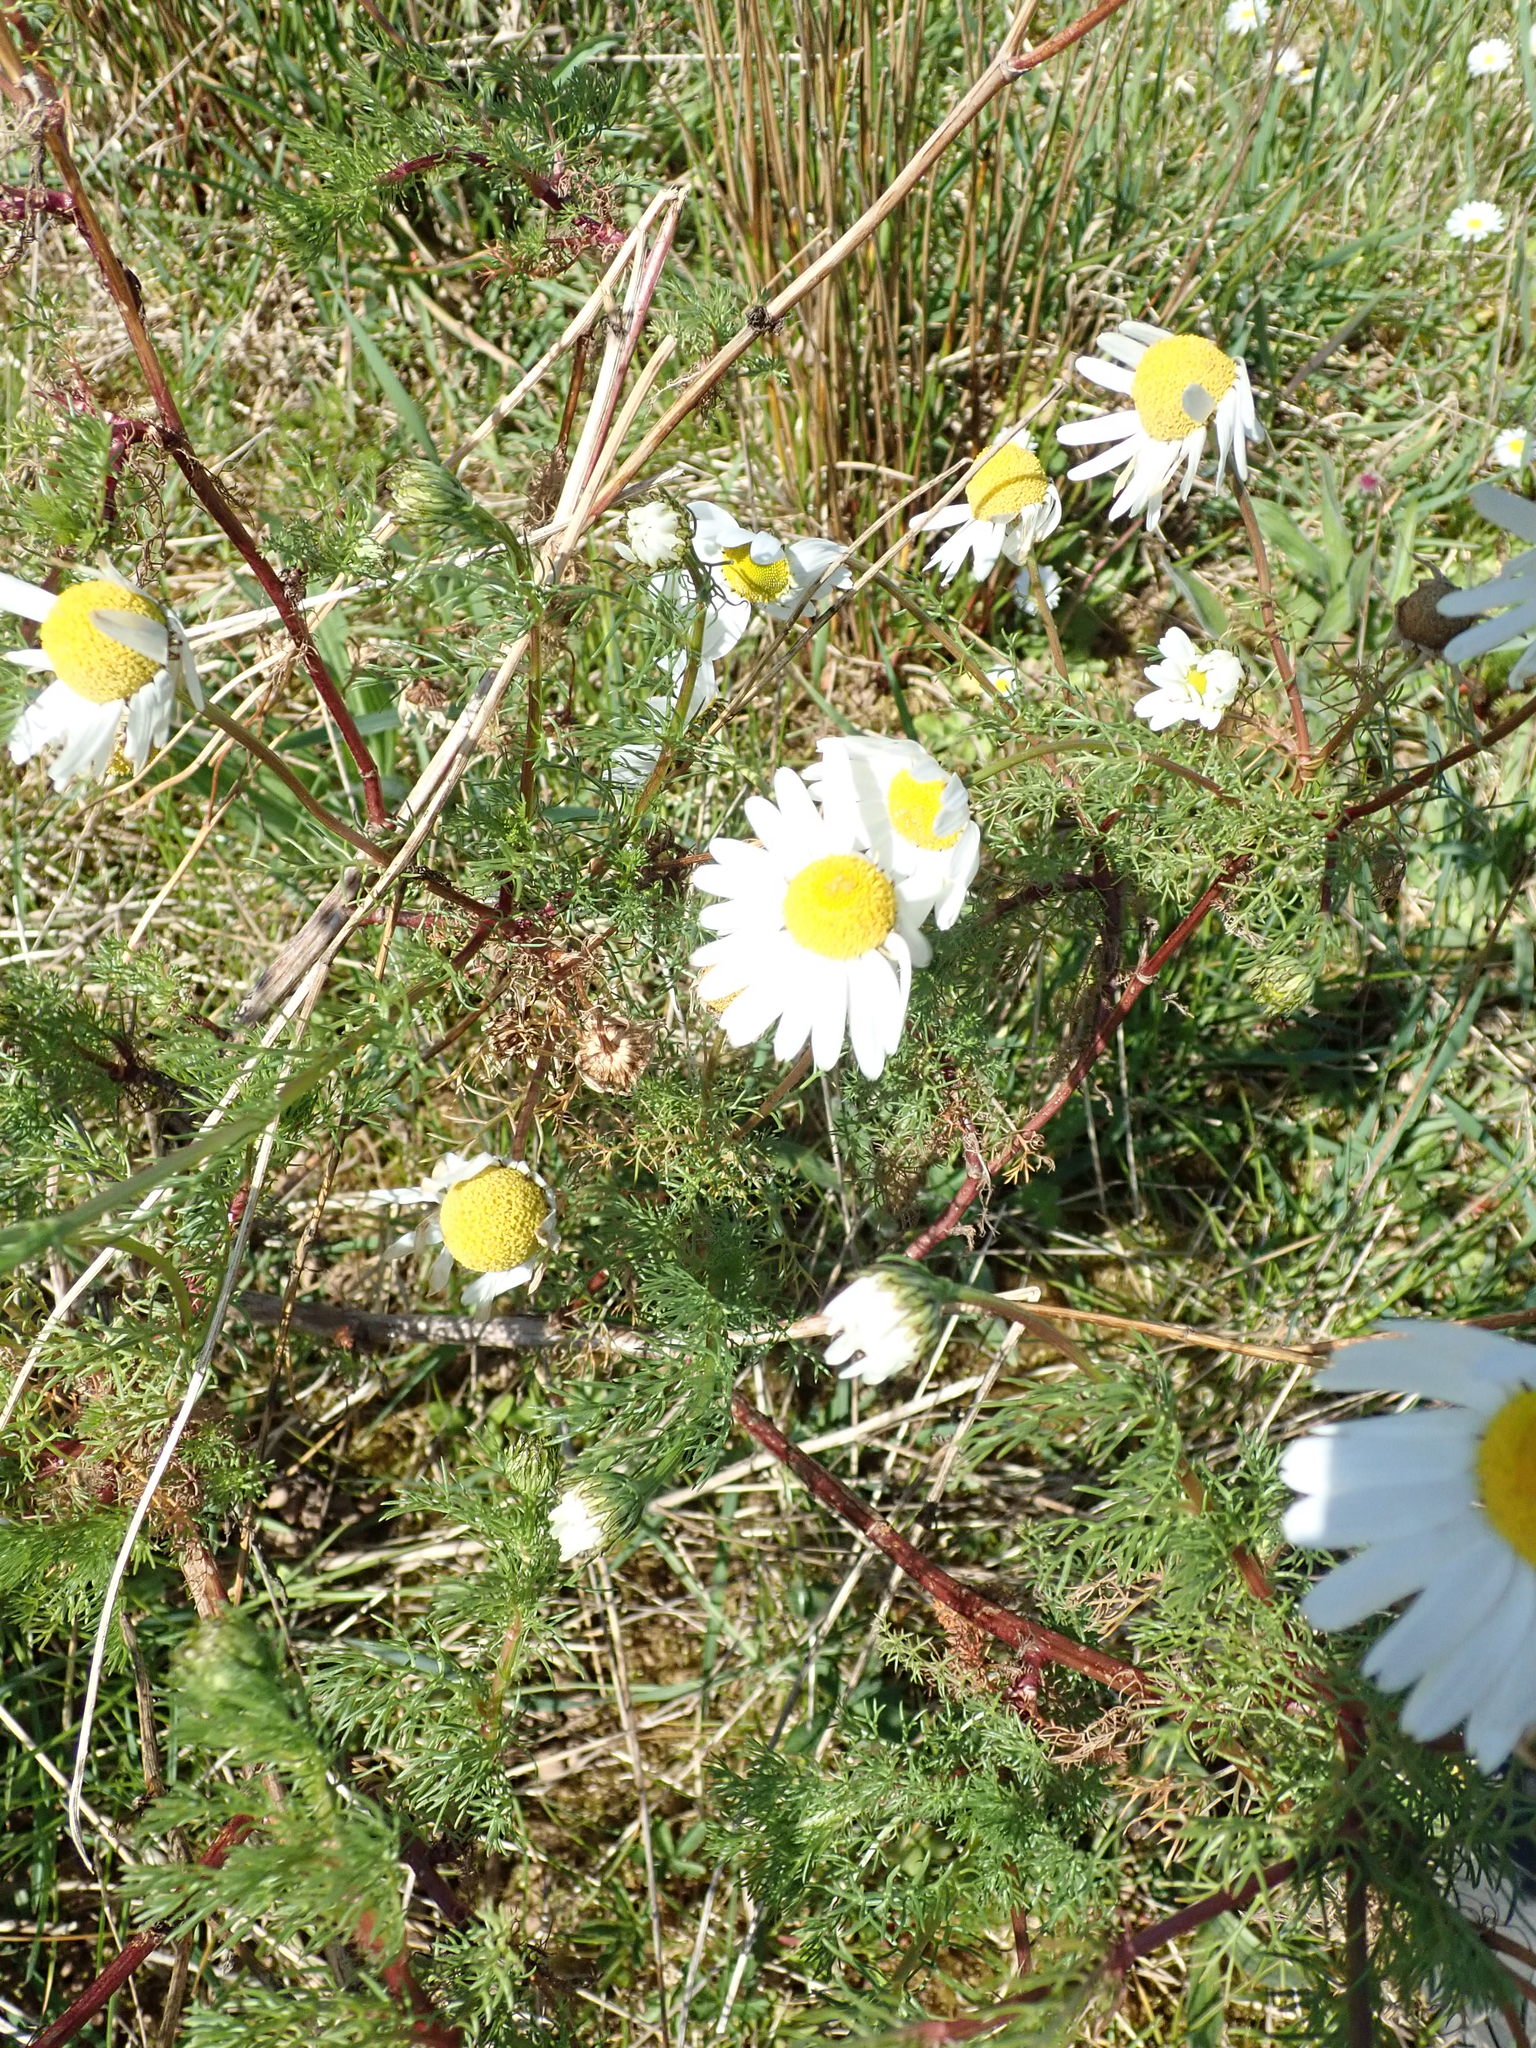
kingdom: Plantae
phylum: Tracheophyta
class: Magnoliopsida
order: Asterales
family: Asteraceae
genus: Tripleurospermum
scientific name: Tripleurospermum inodorum
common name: Scentless mayweed
